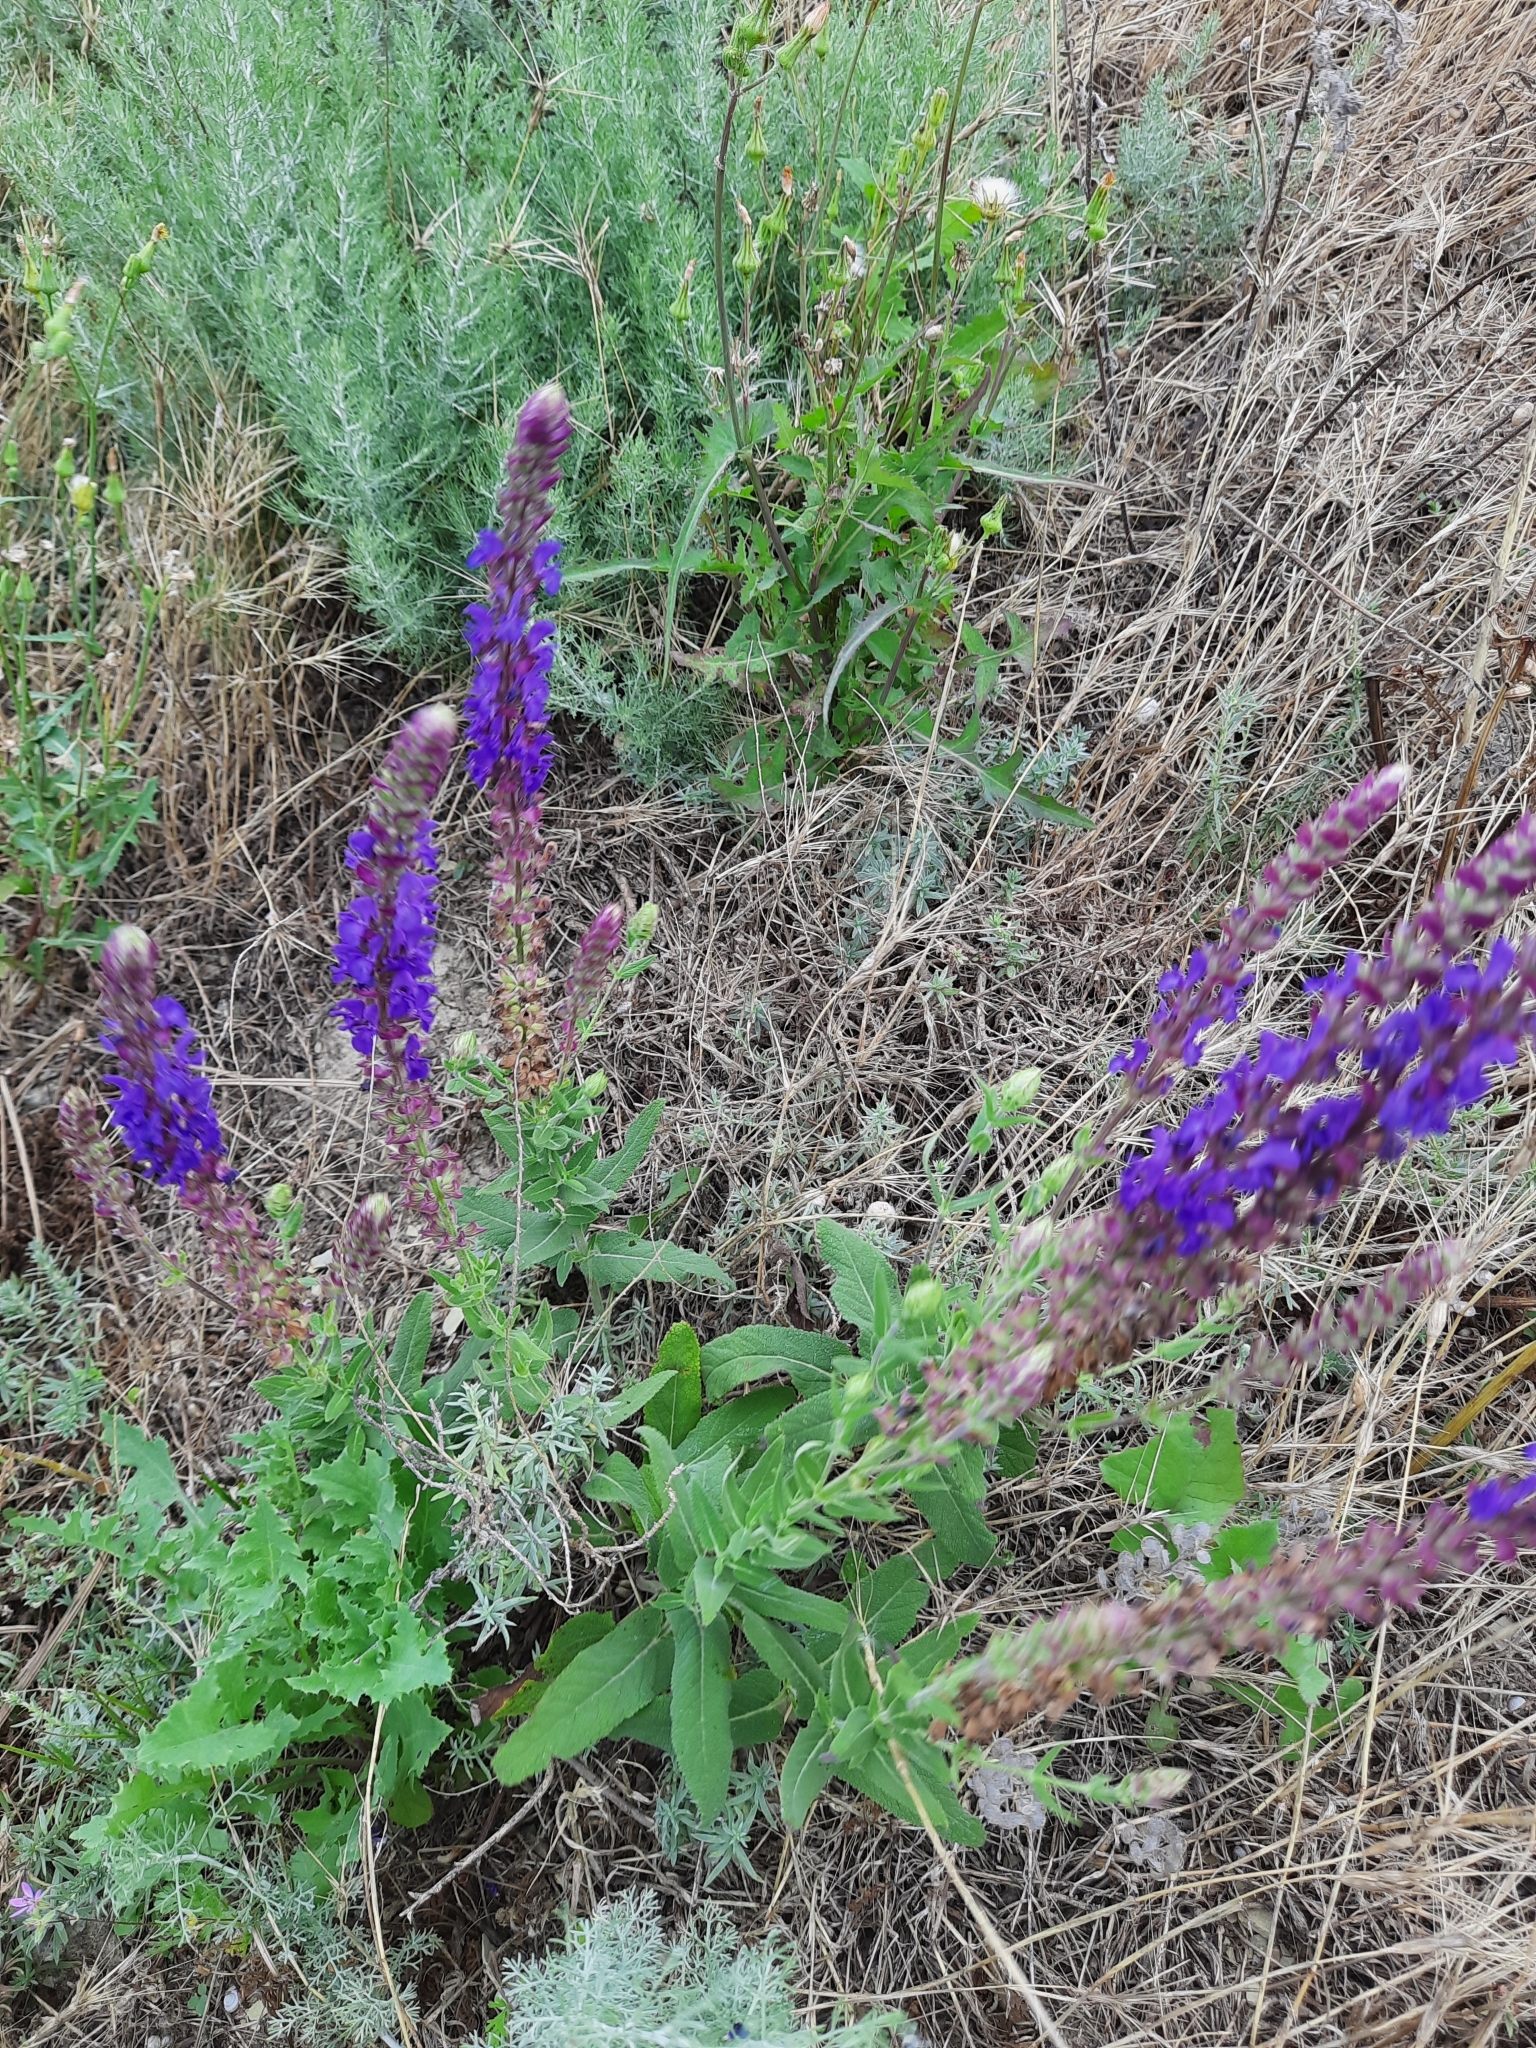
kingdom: Plantae
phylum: Tracheophyta
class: Magnoliopsida
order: Lamiales
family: Lamiaceae
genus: Salvia
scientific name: Salvia nemorosa
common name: Balkan clary
